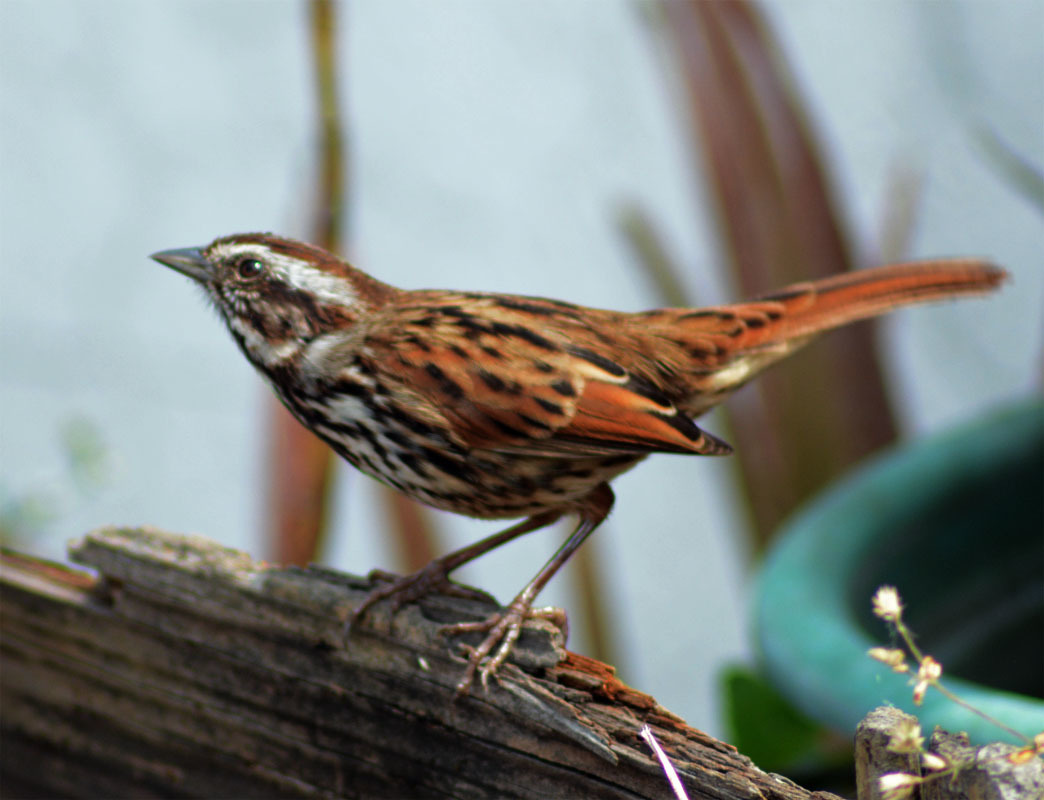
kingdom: Animalia
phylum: Chordata
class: Aves
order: Passeriformes
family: Passerellidae
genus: Melospiza
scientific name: Melospiza melodia
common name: Song sparrow
